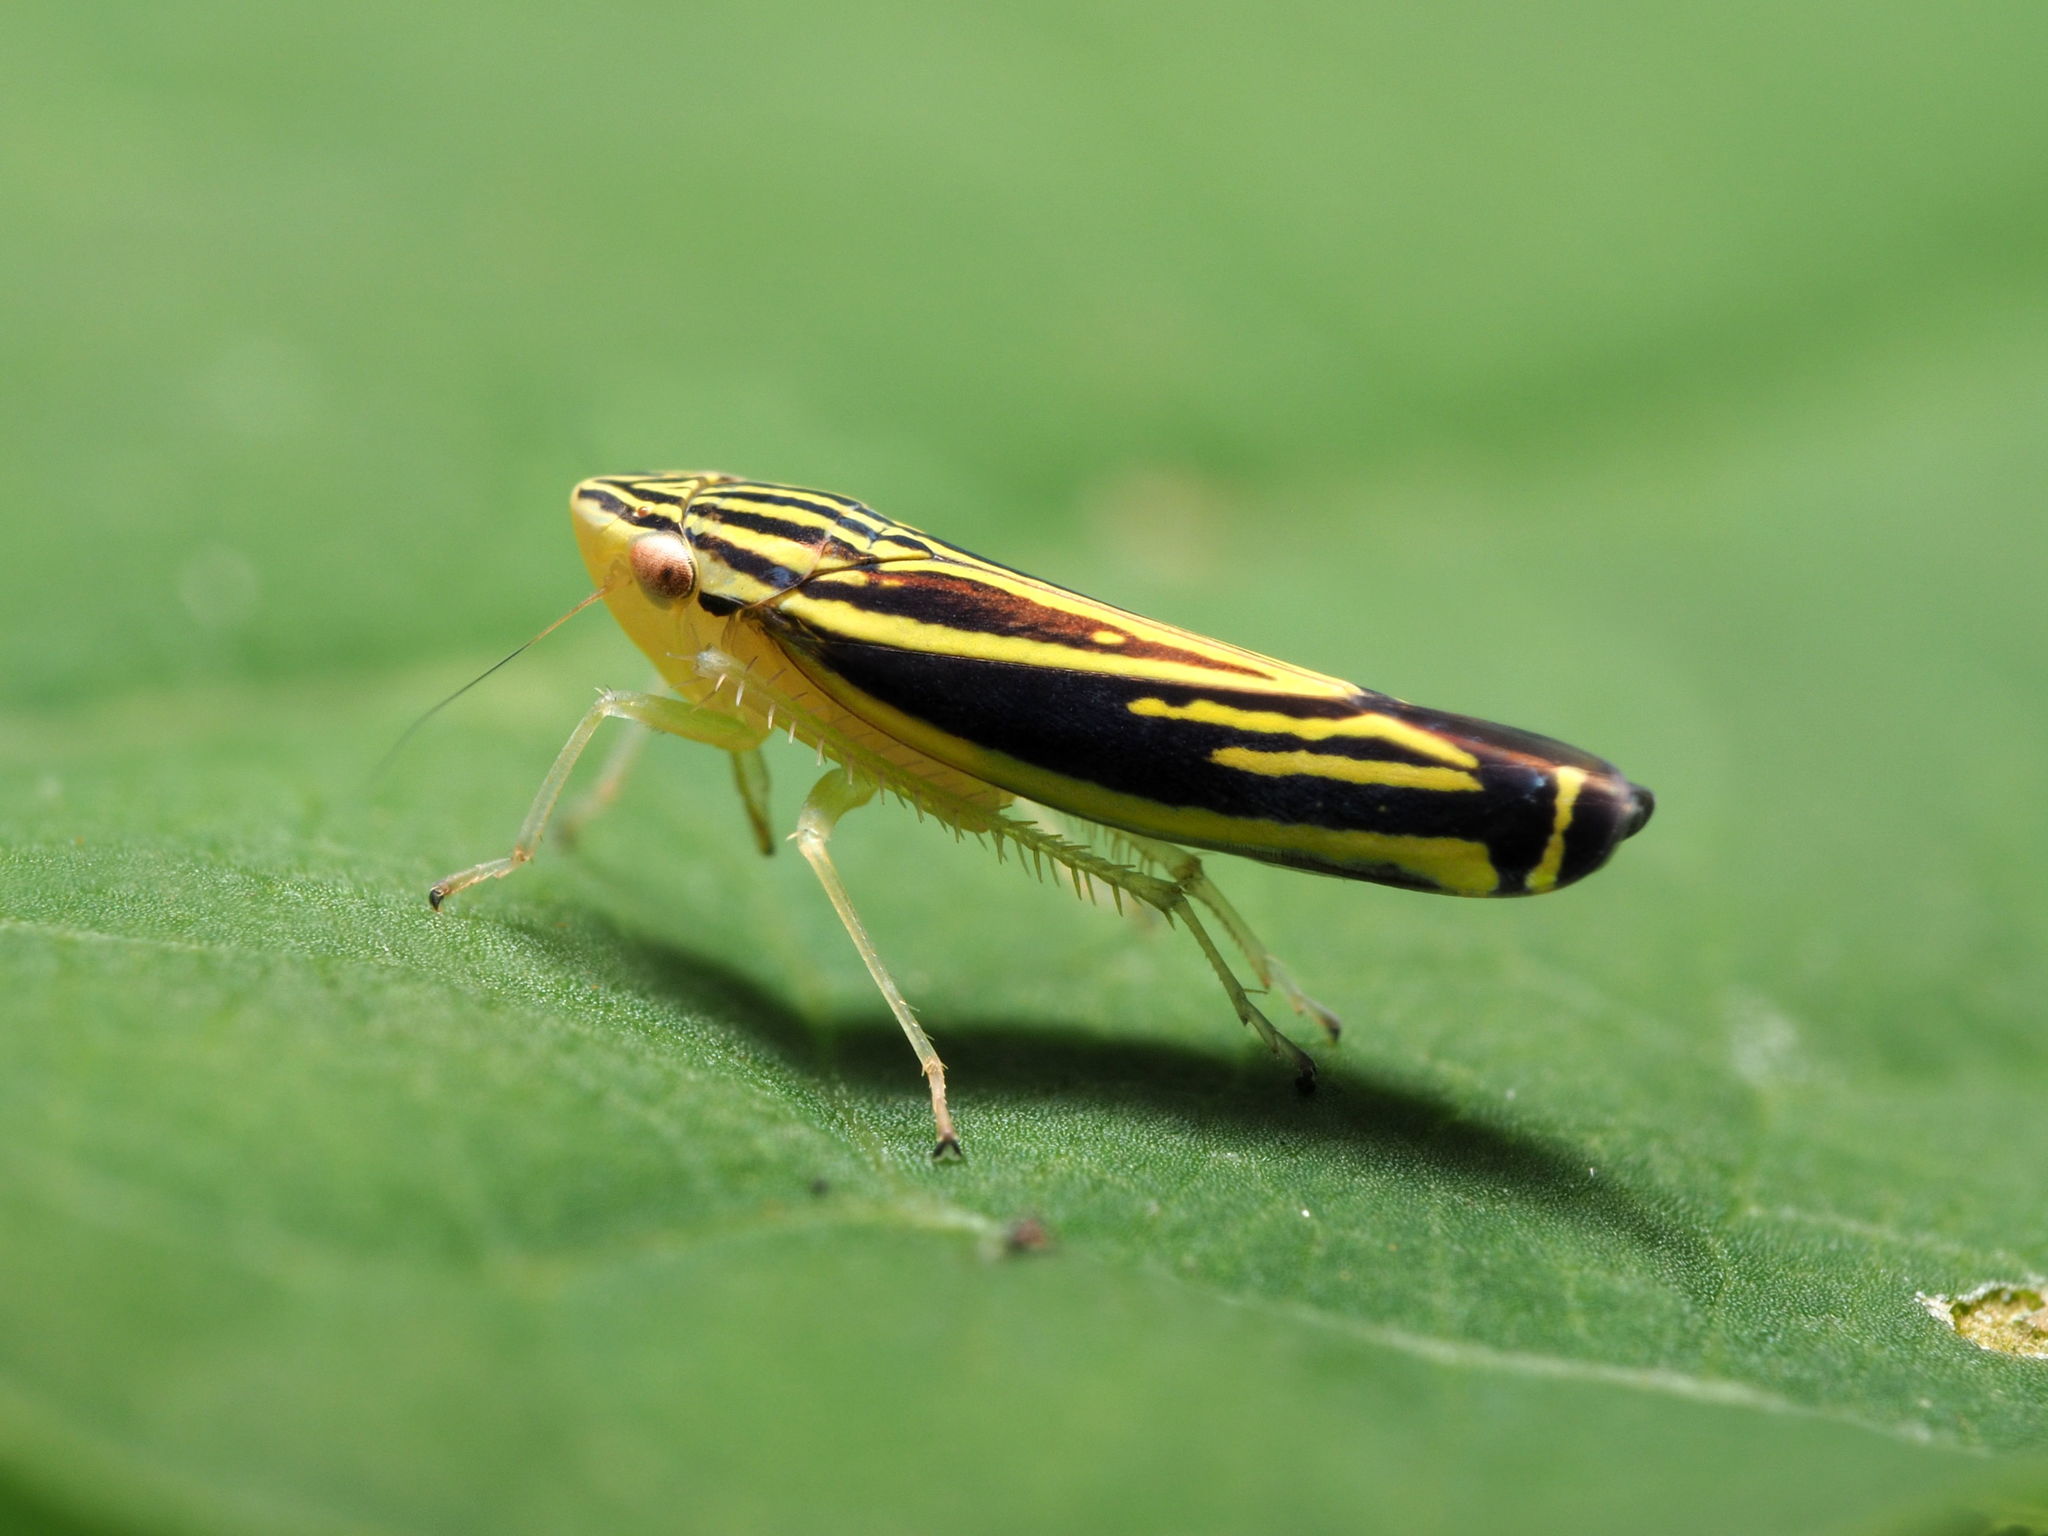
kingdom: Animalia
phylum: Arthropoda
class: Insecta
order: Hemiptera
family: Cicadellidae
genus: Sibovia
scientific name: Sibovia occatoria
